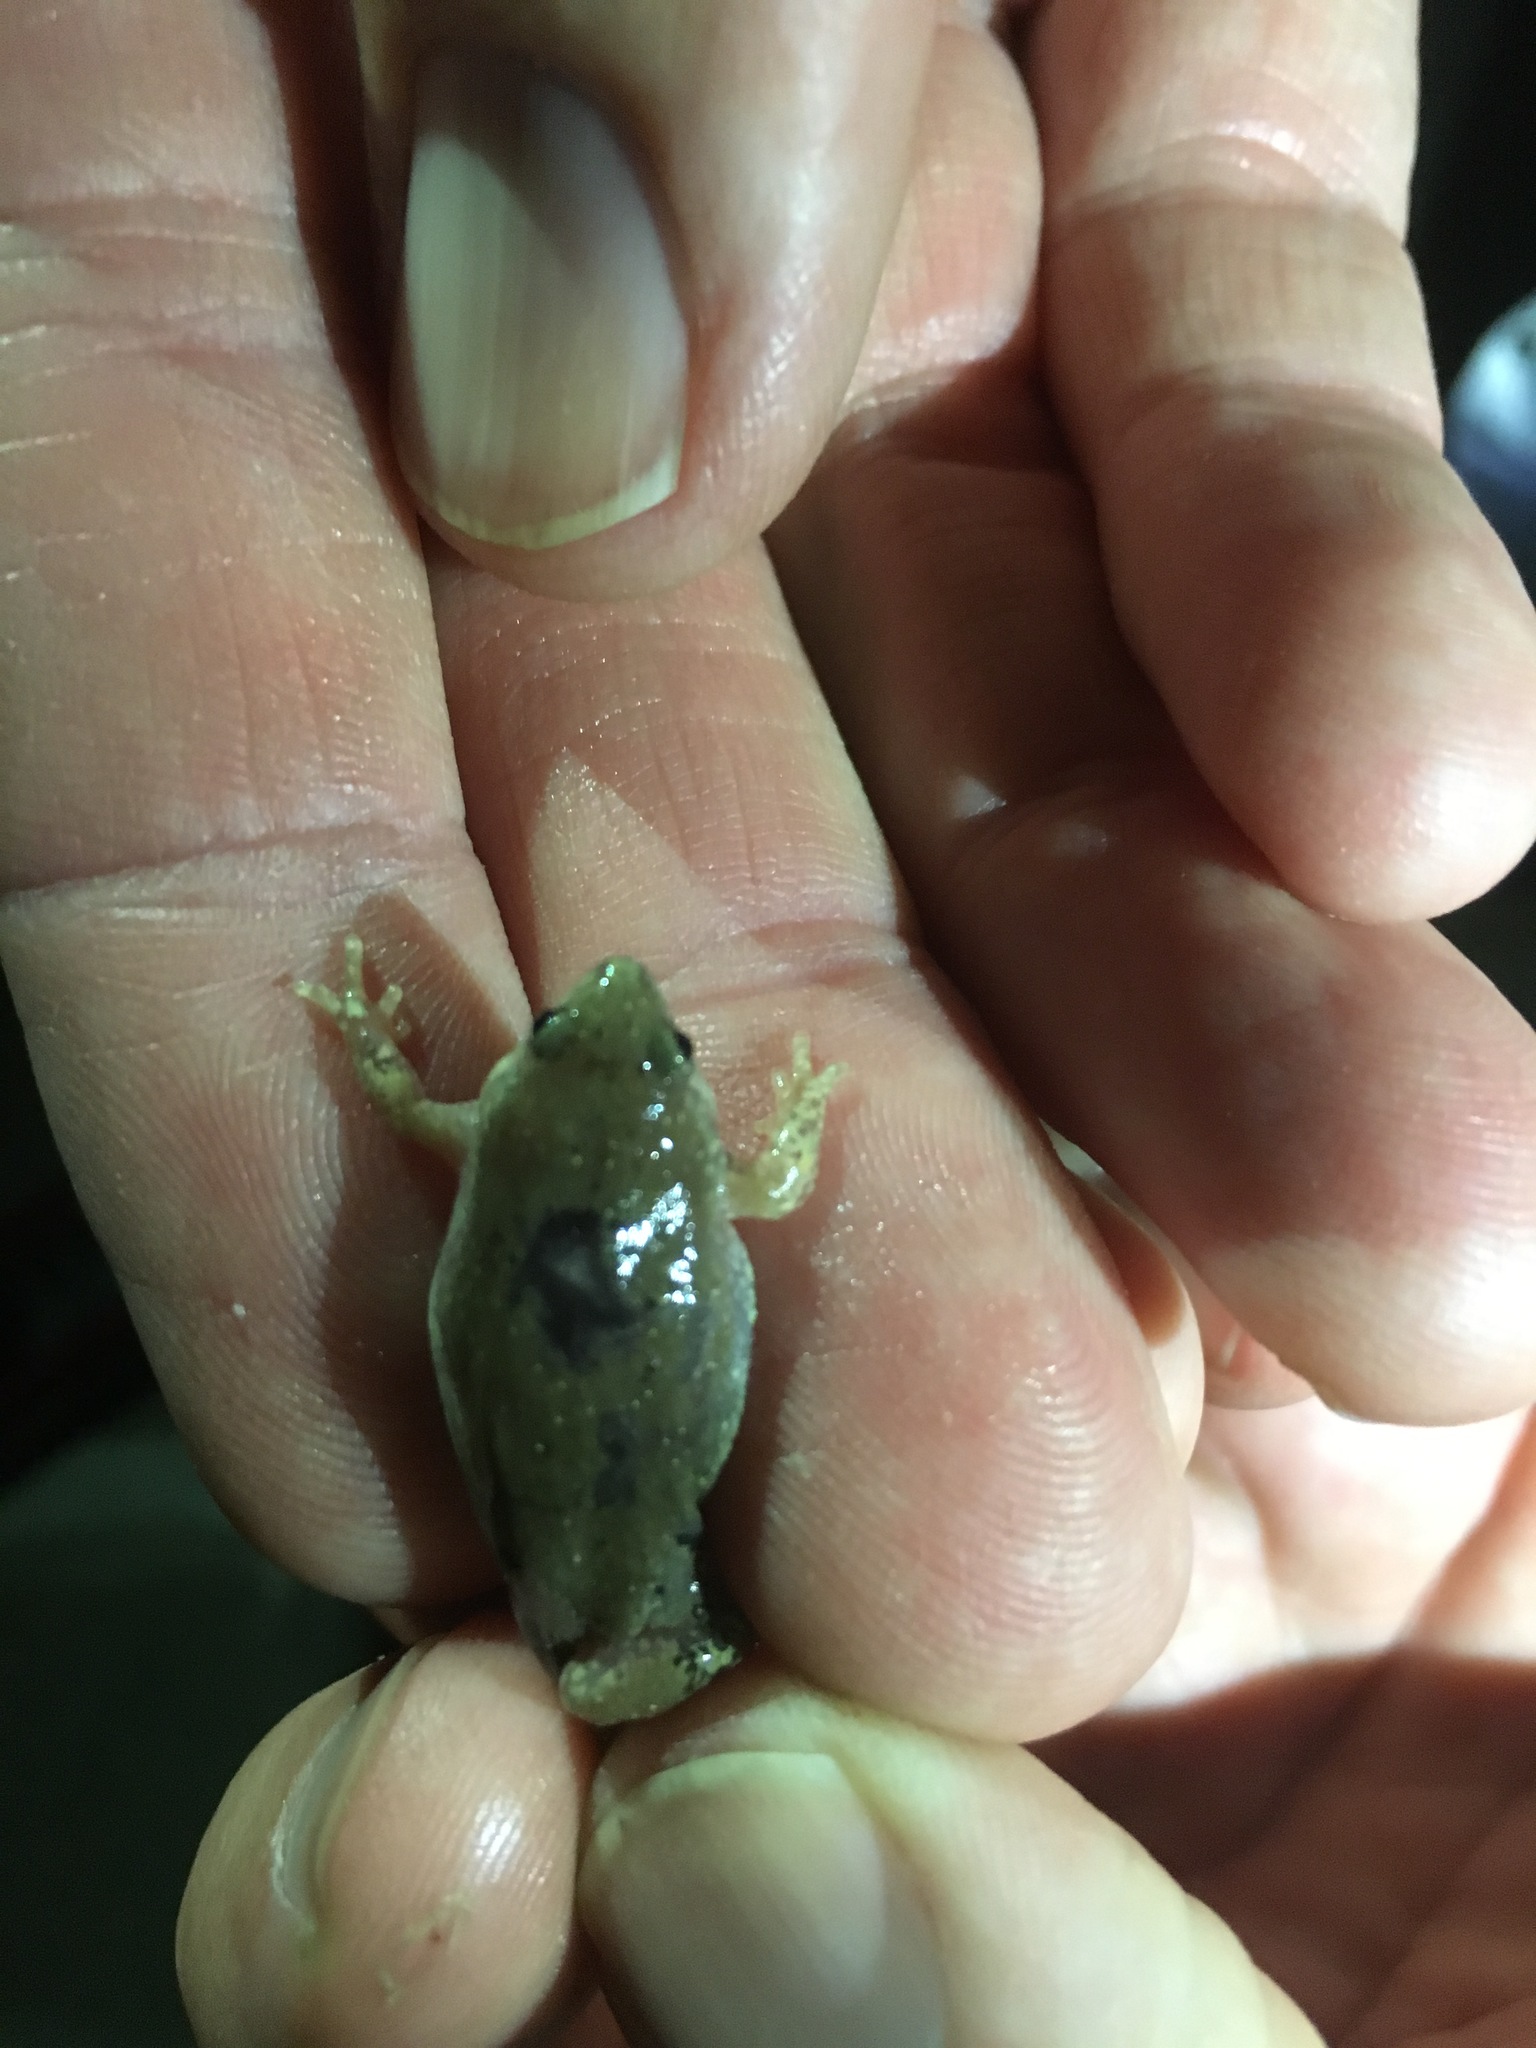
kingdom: Animalia
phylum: Chordata
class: Amphibia
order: Anura
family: Microhylidae
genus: Gastrophryne
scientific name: Gastrophryne mazatlanensis
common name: Sinaloan narrow-mouthed toad
